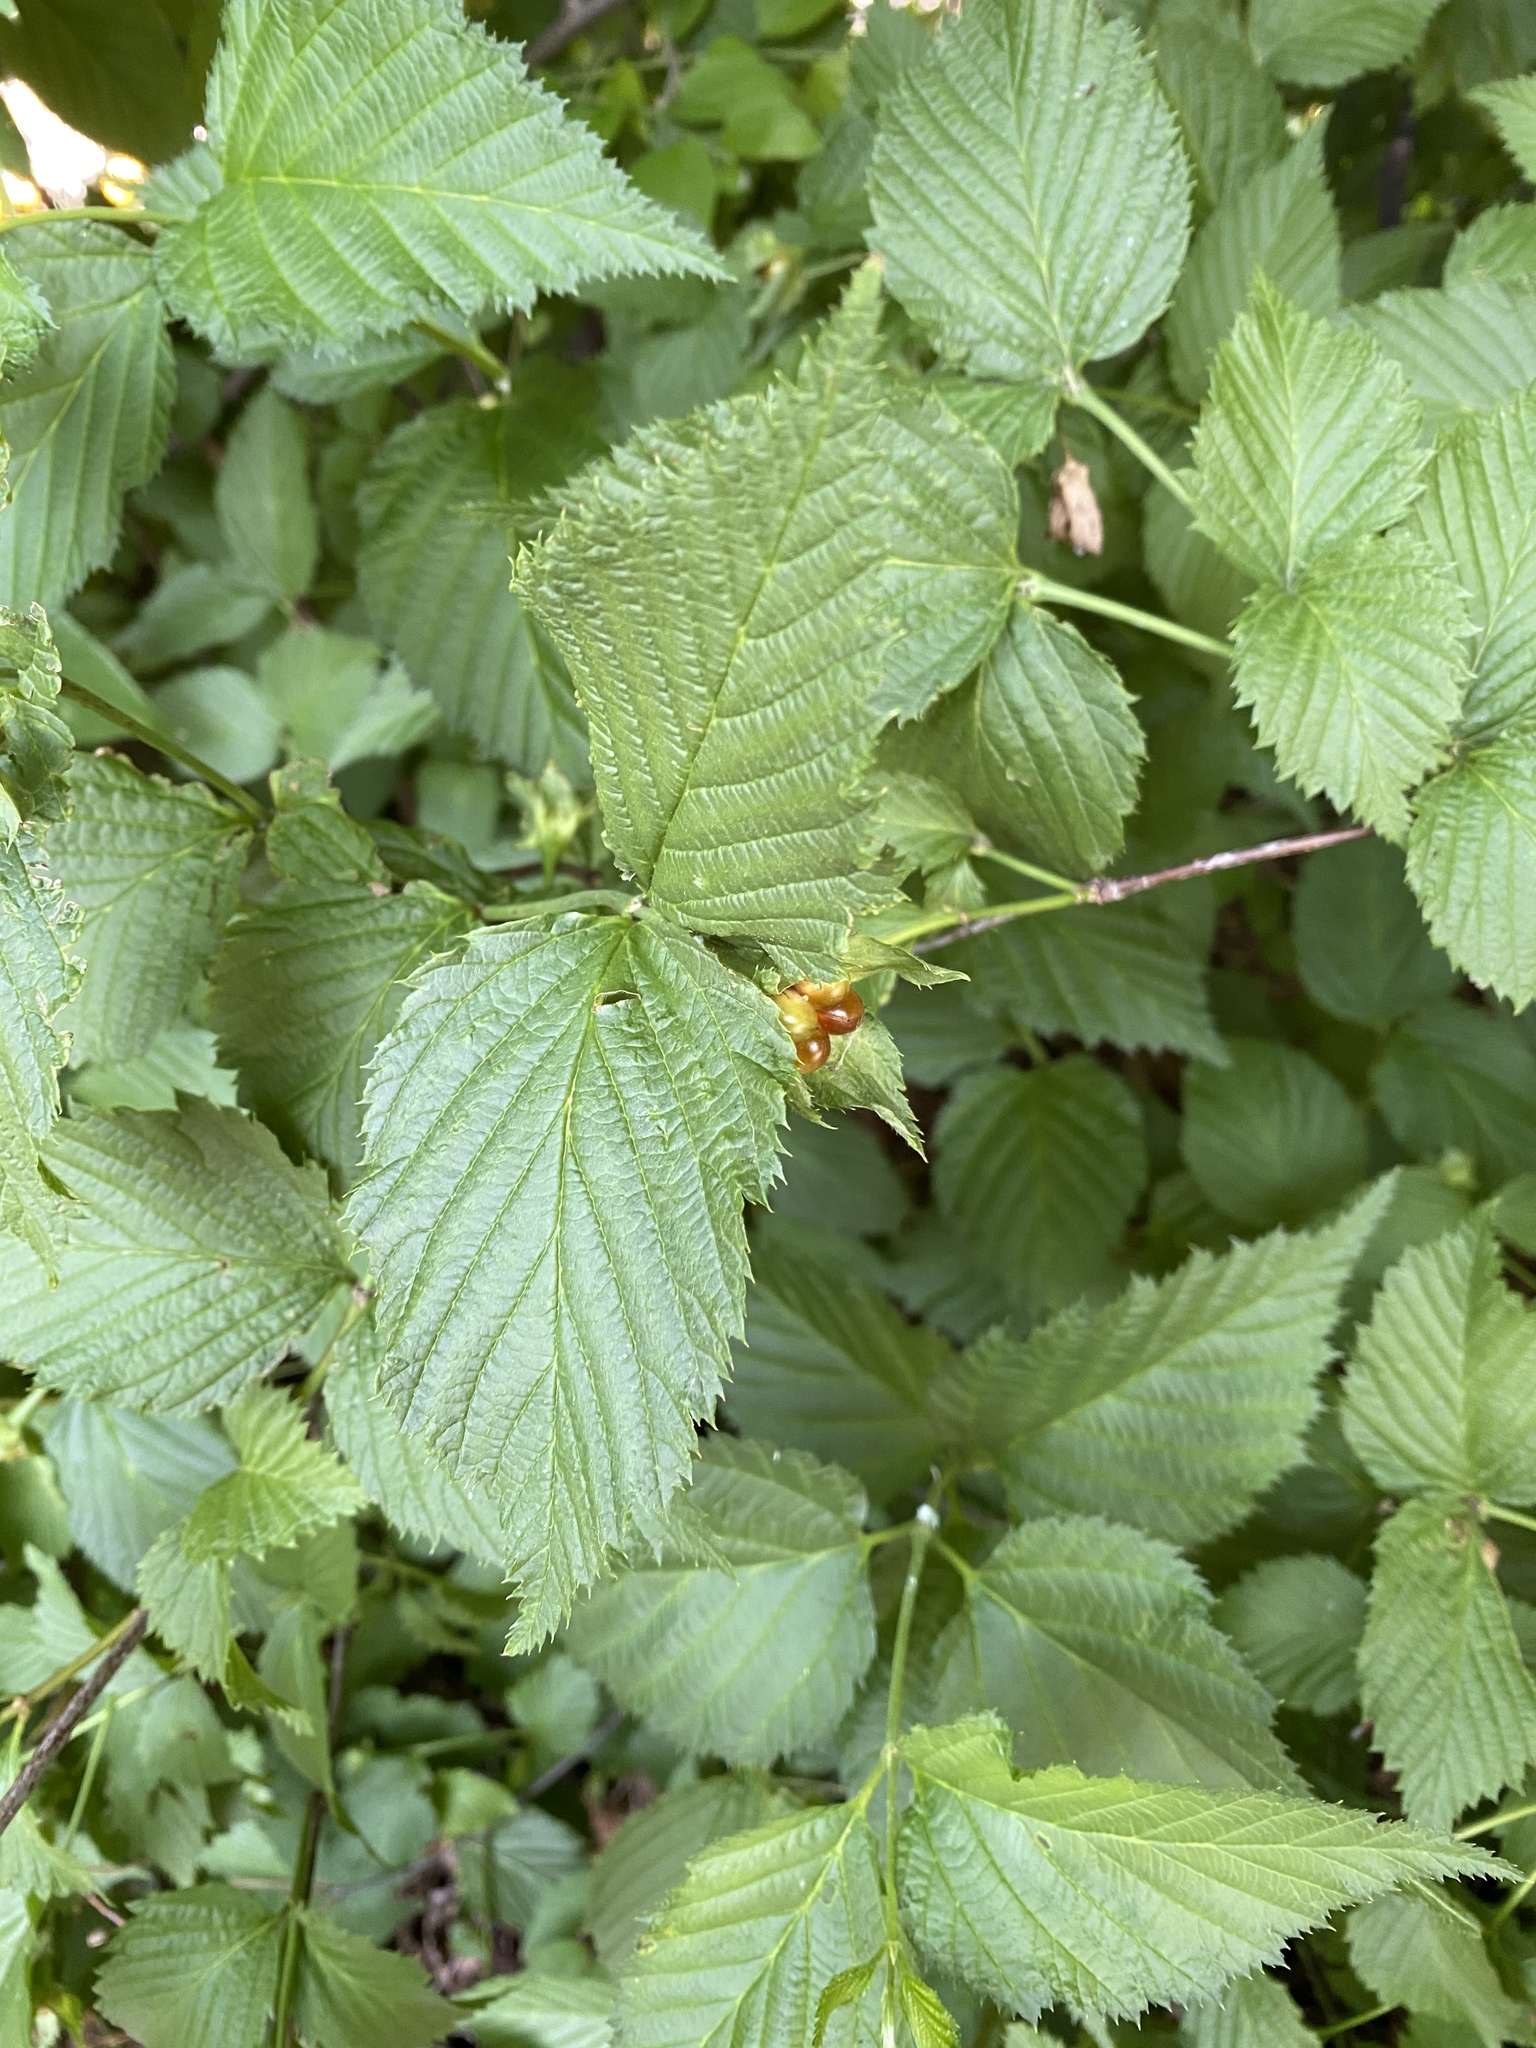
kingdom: Plantae
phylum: Tracheophyta
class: Magnoliopsida
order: Rosales
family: Rosaceae
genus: Rhodotypos
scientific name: Rhodotypos scandens
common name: Jetbead
